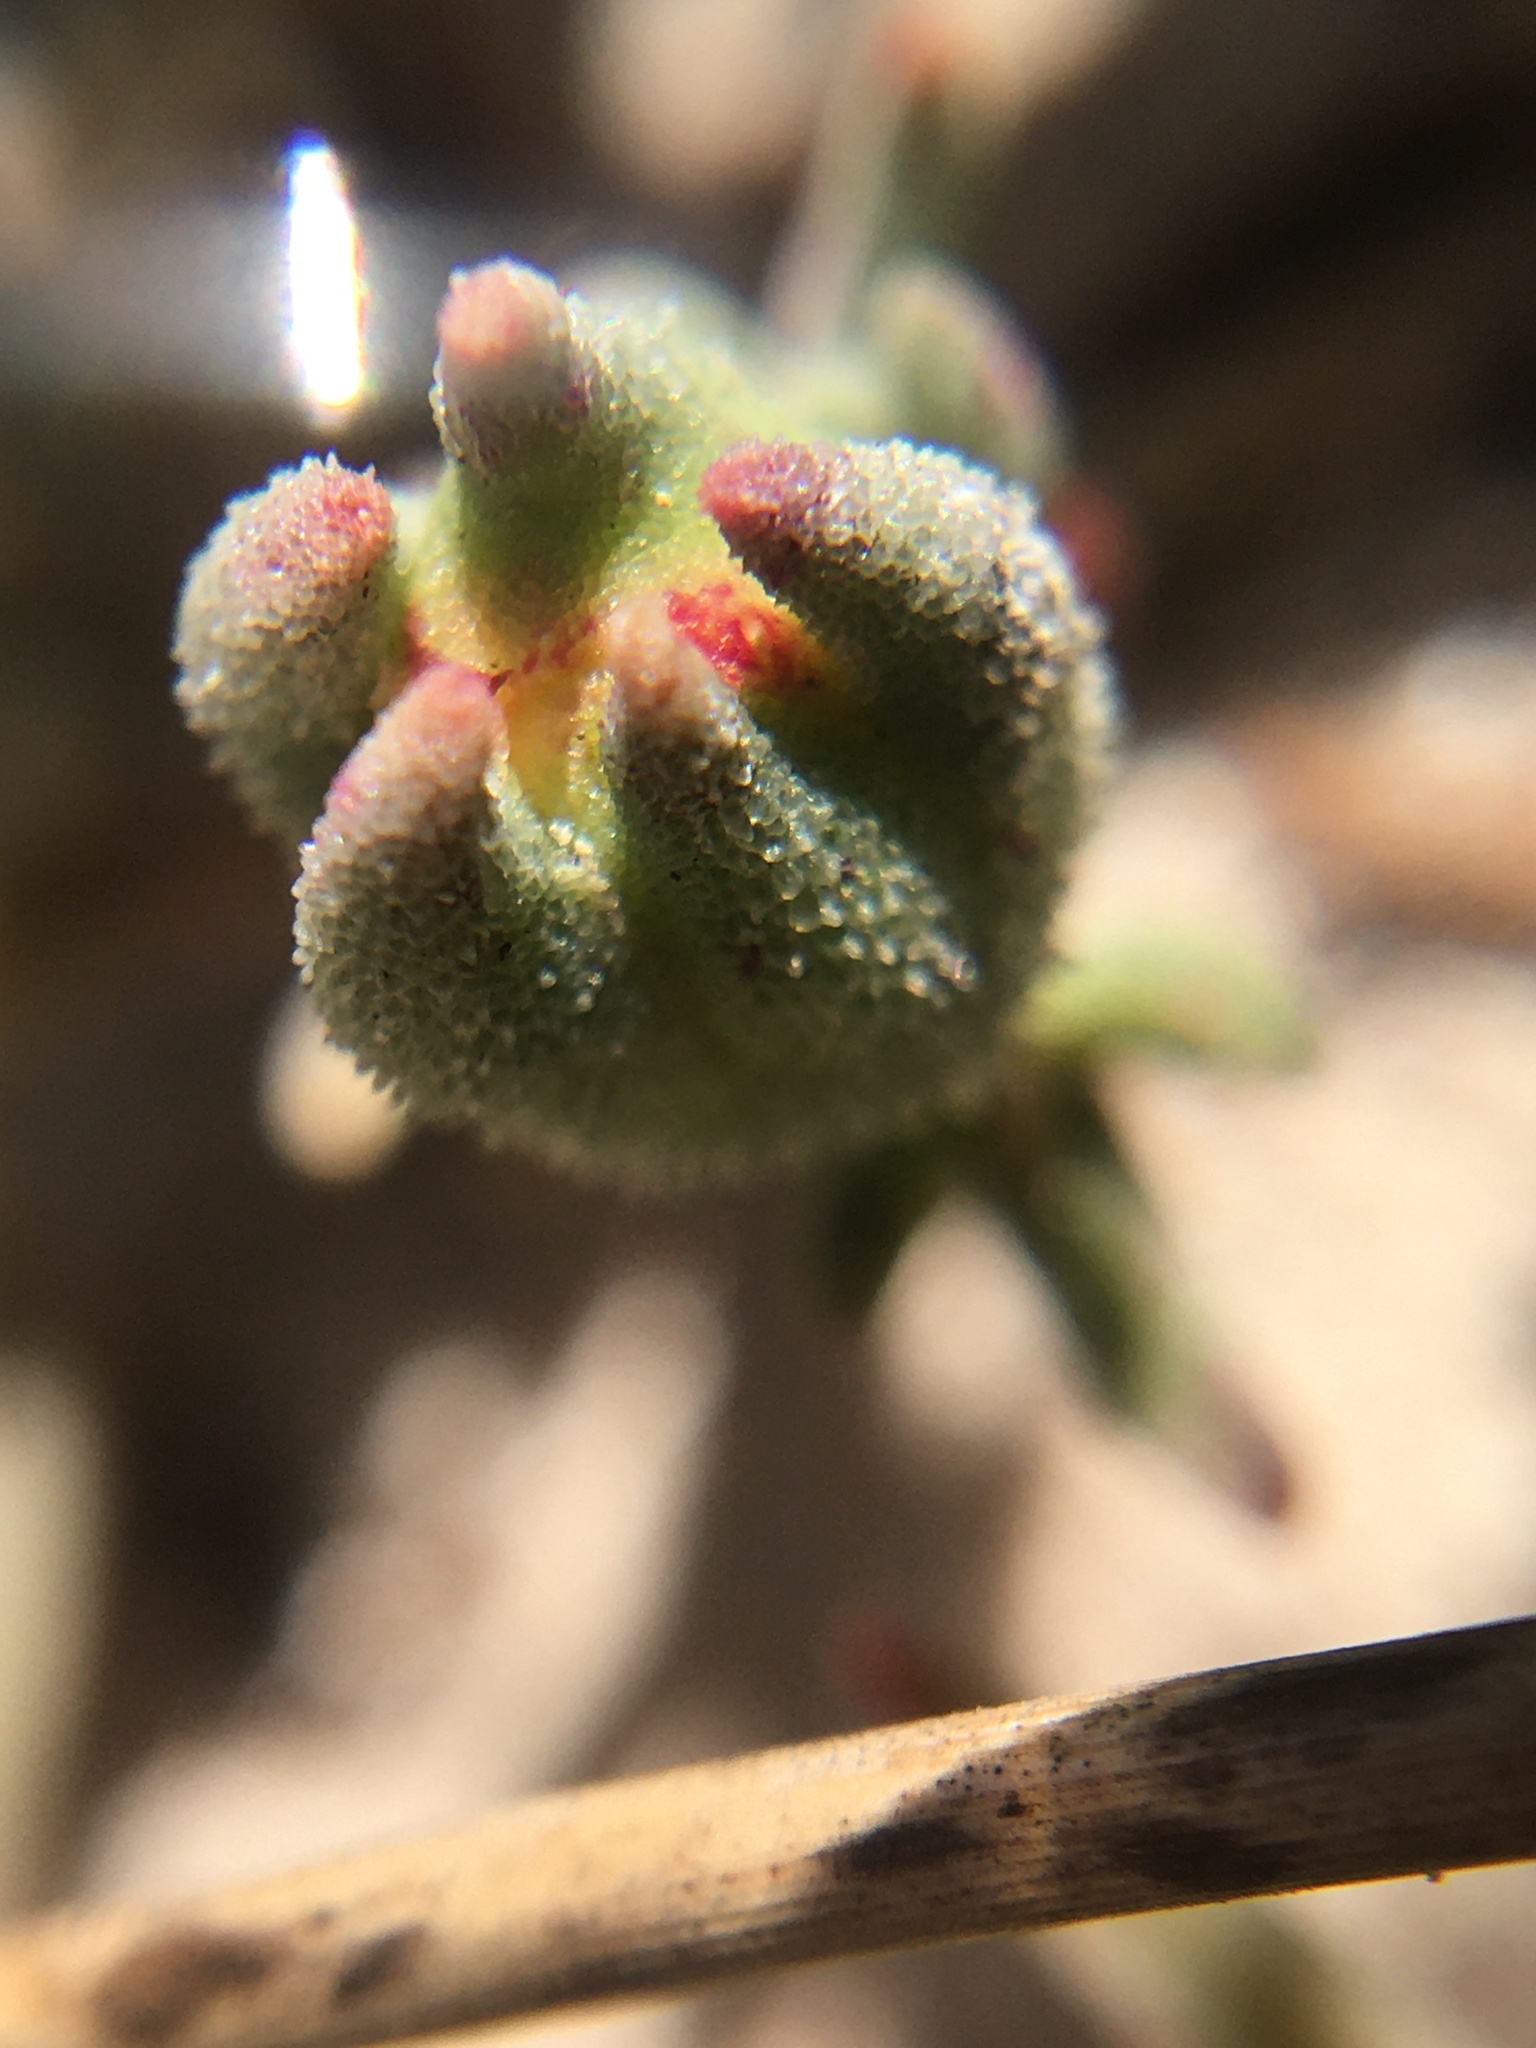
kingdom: Plantae
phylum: Tracheophyta
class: Magnoliopsida
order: Caryophyllales
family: Aizoaceae
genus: Mesembryanthemum
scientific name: Mesembryanthemum canaliculatum
